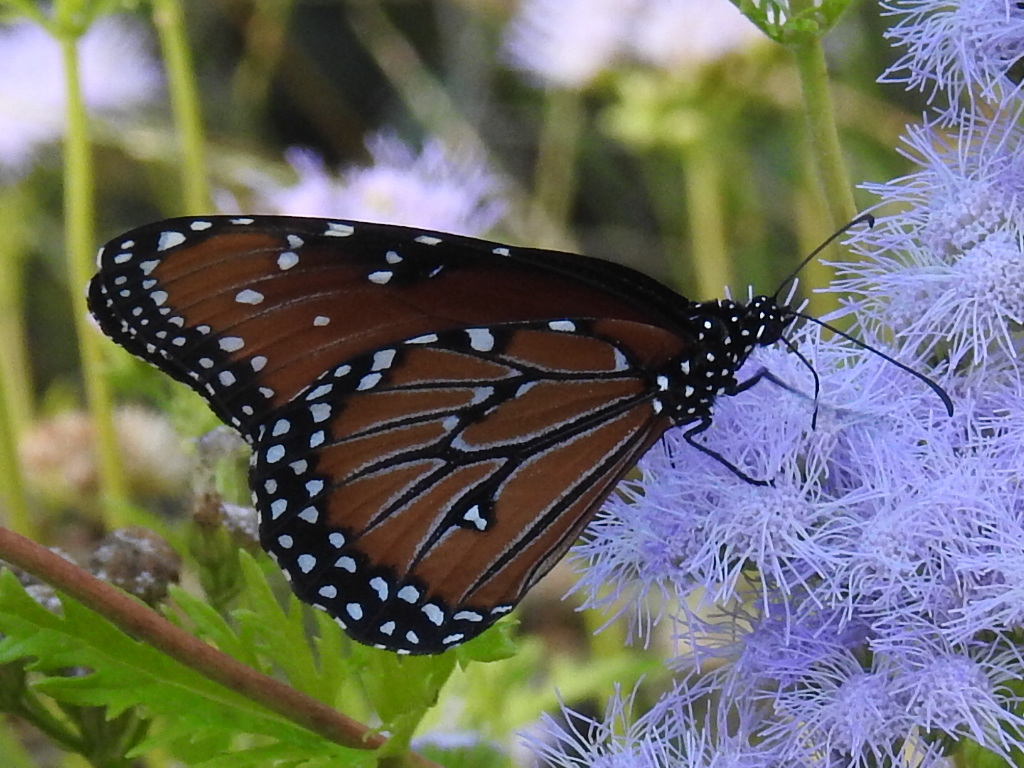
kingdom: Animalia
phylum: Arthropoda
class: Insecta
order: Lepidoptera
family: Nymphalidae
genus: Danaus
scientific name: Danaus gilippus
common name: Queen
